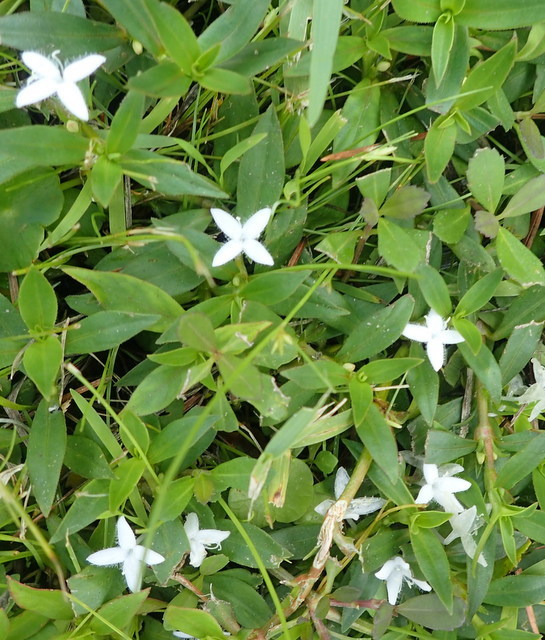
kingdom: Plantae
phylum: Tracheophyta
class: Magnoliopsida
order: Gentianales
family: Rubiaceae
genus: Diodia
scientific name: Diodia virginiana
